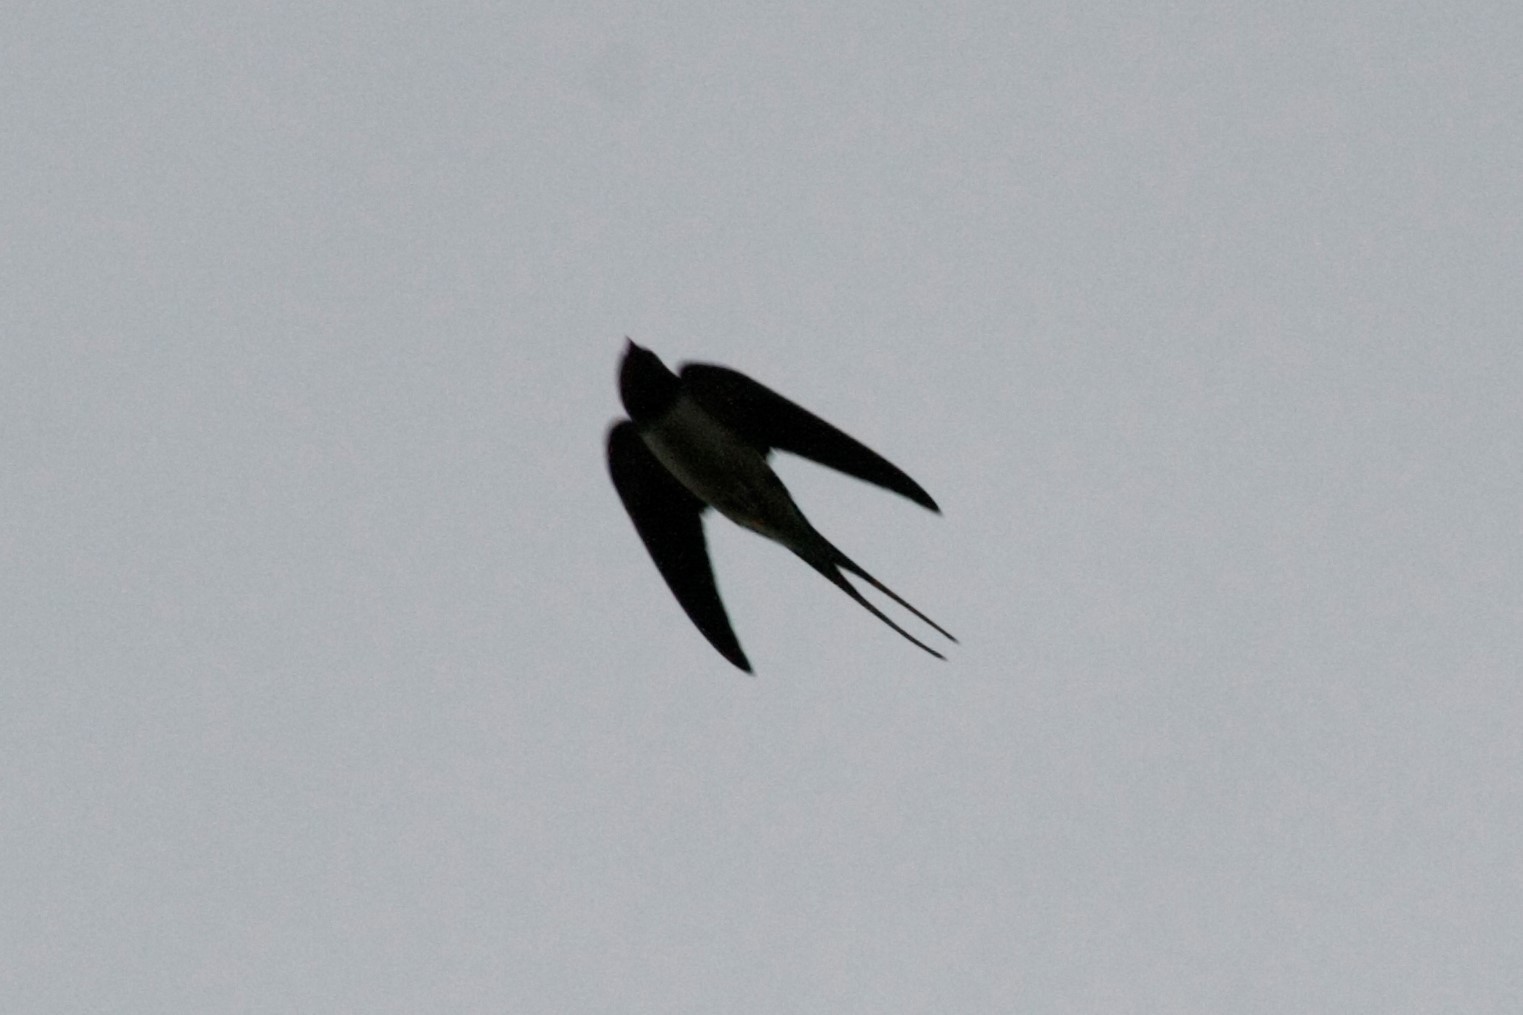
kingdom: Animalia
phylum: Chordata
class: Aves
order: Passeriformes
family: Hirundinidae
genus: Hirundo
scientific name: Hirundo rustica
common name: Barn swallow
